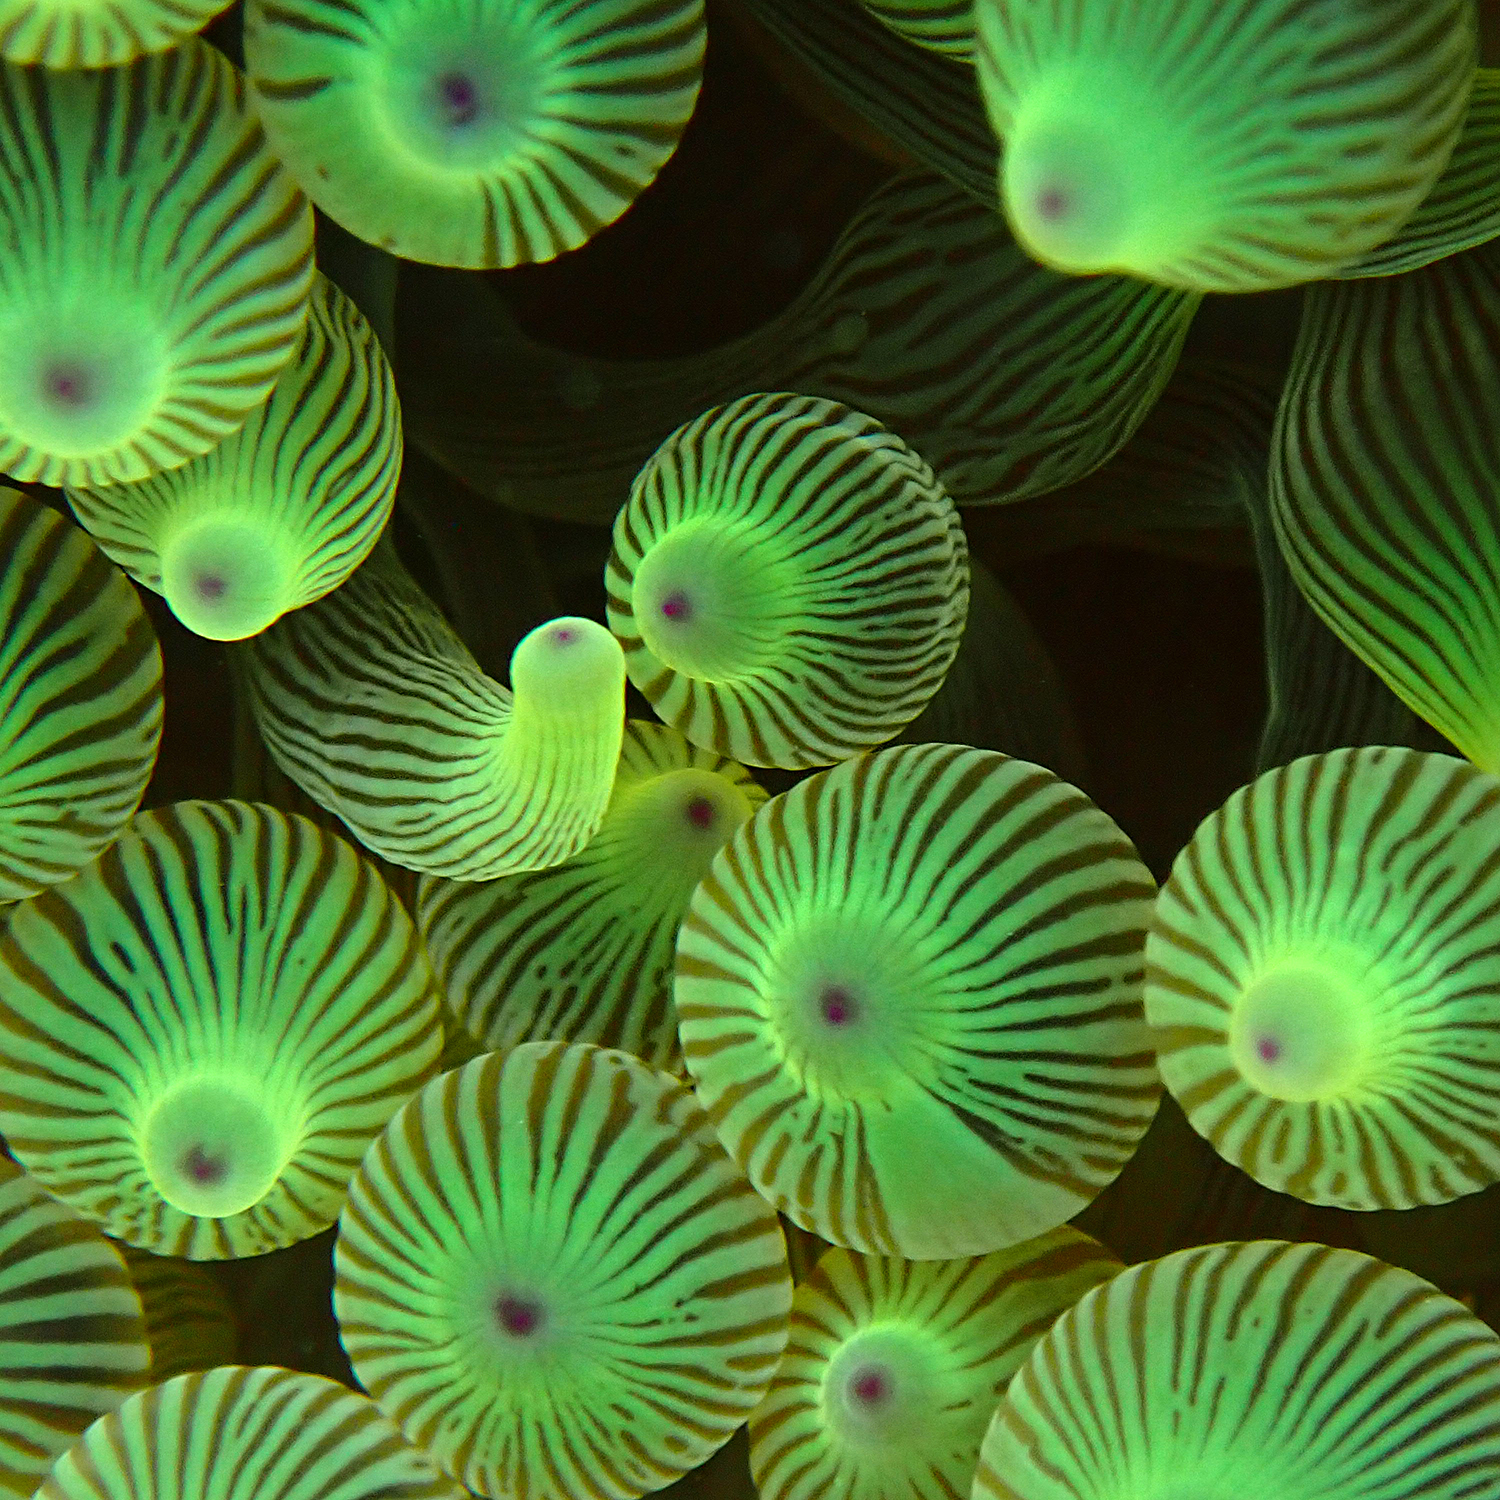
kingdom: Animalia
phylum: Cnidaria
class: Anthozoa
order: Actiniaria
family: Actiniidae
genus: Entacmaea
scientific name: Entacmaea quadricolor
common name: Bulb tentacle sea anemone
